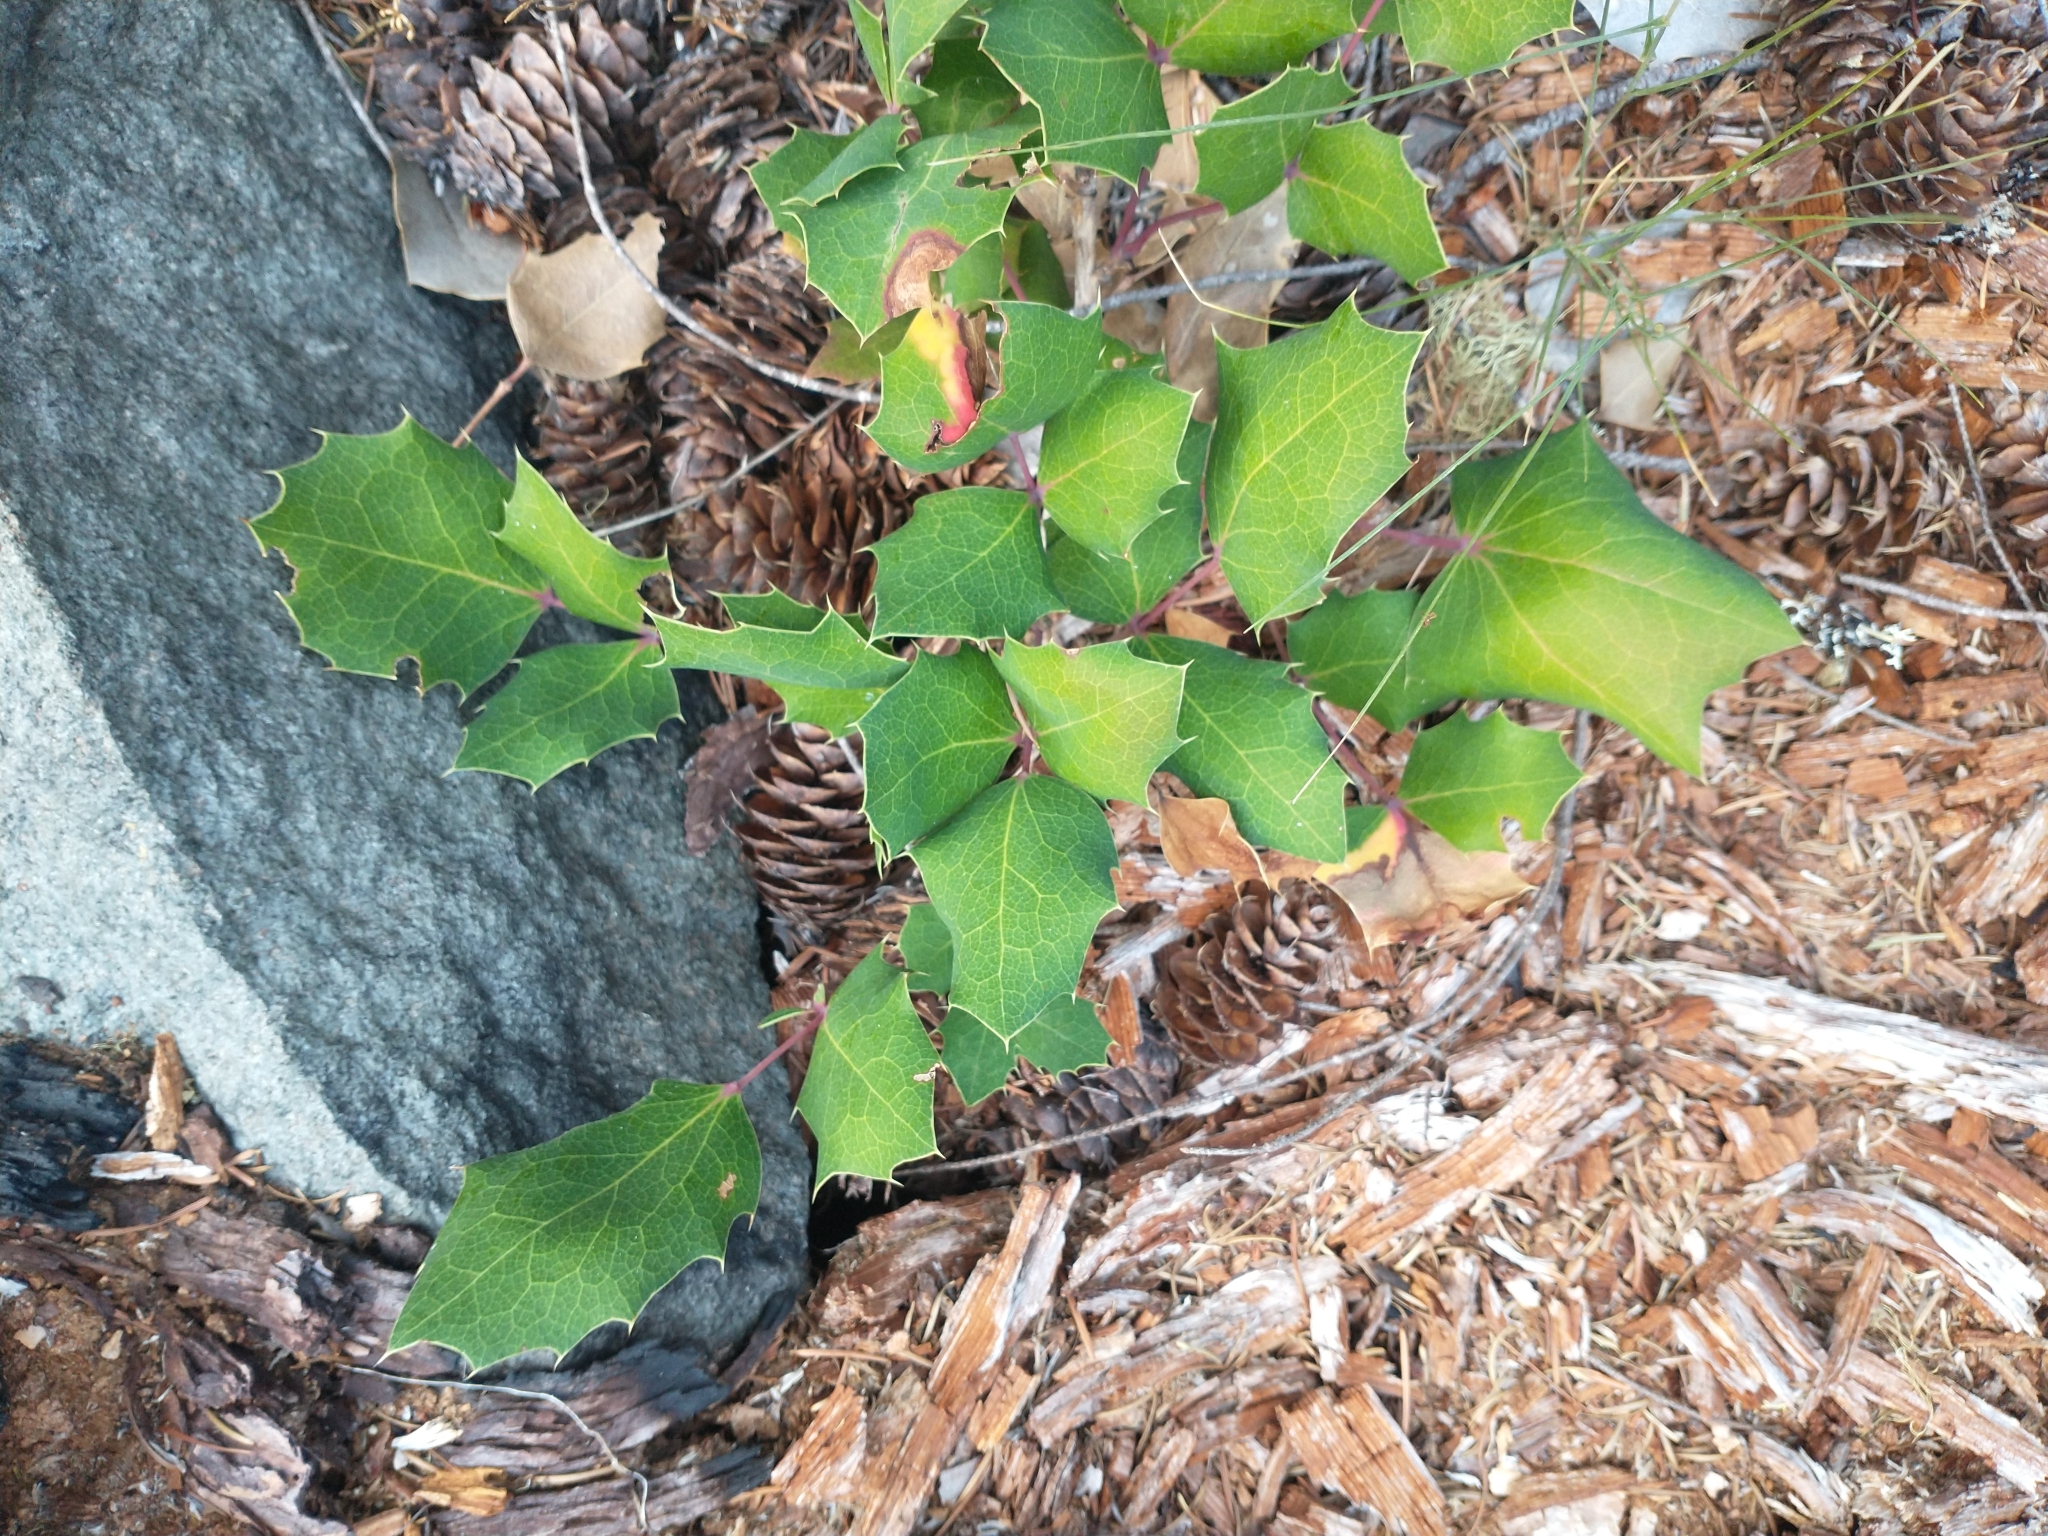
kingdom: Plantae
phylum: Tracheophyta
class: Magnoliopsida
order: Ranunculales
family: Berberidaceae
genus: Mahonia
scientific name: Mahonia repens
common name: Creeping oregon-grape
